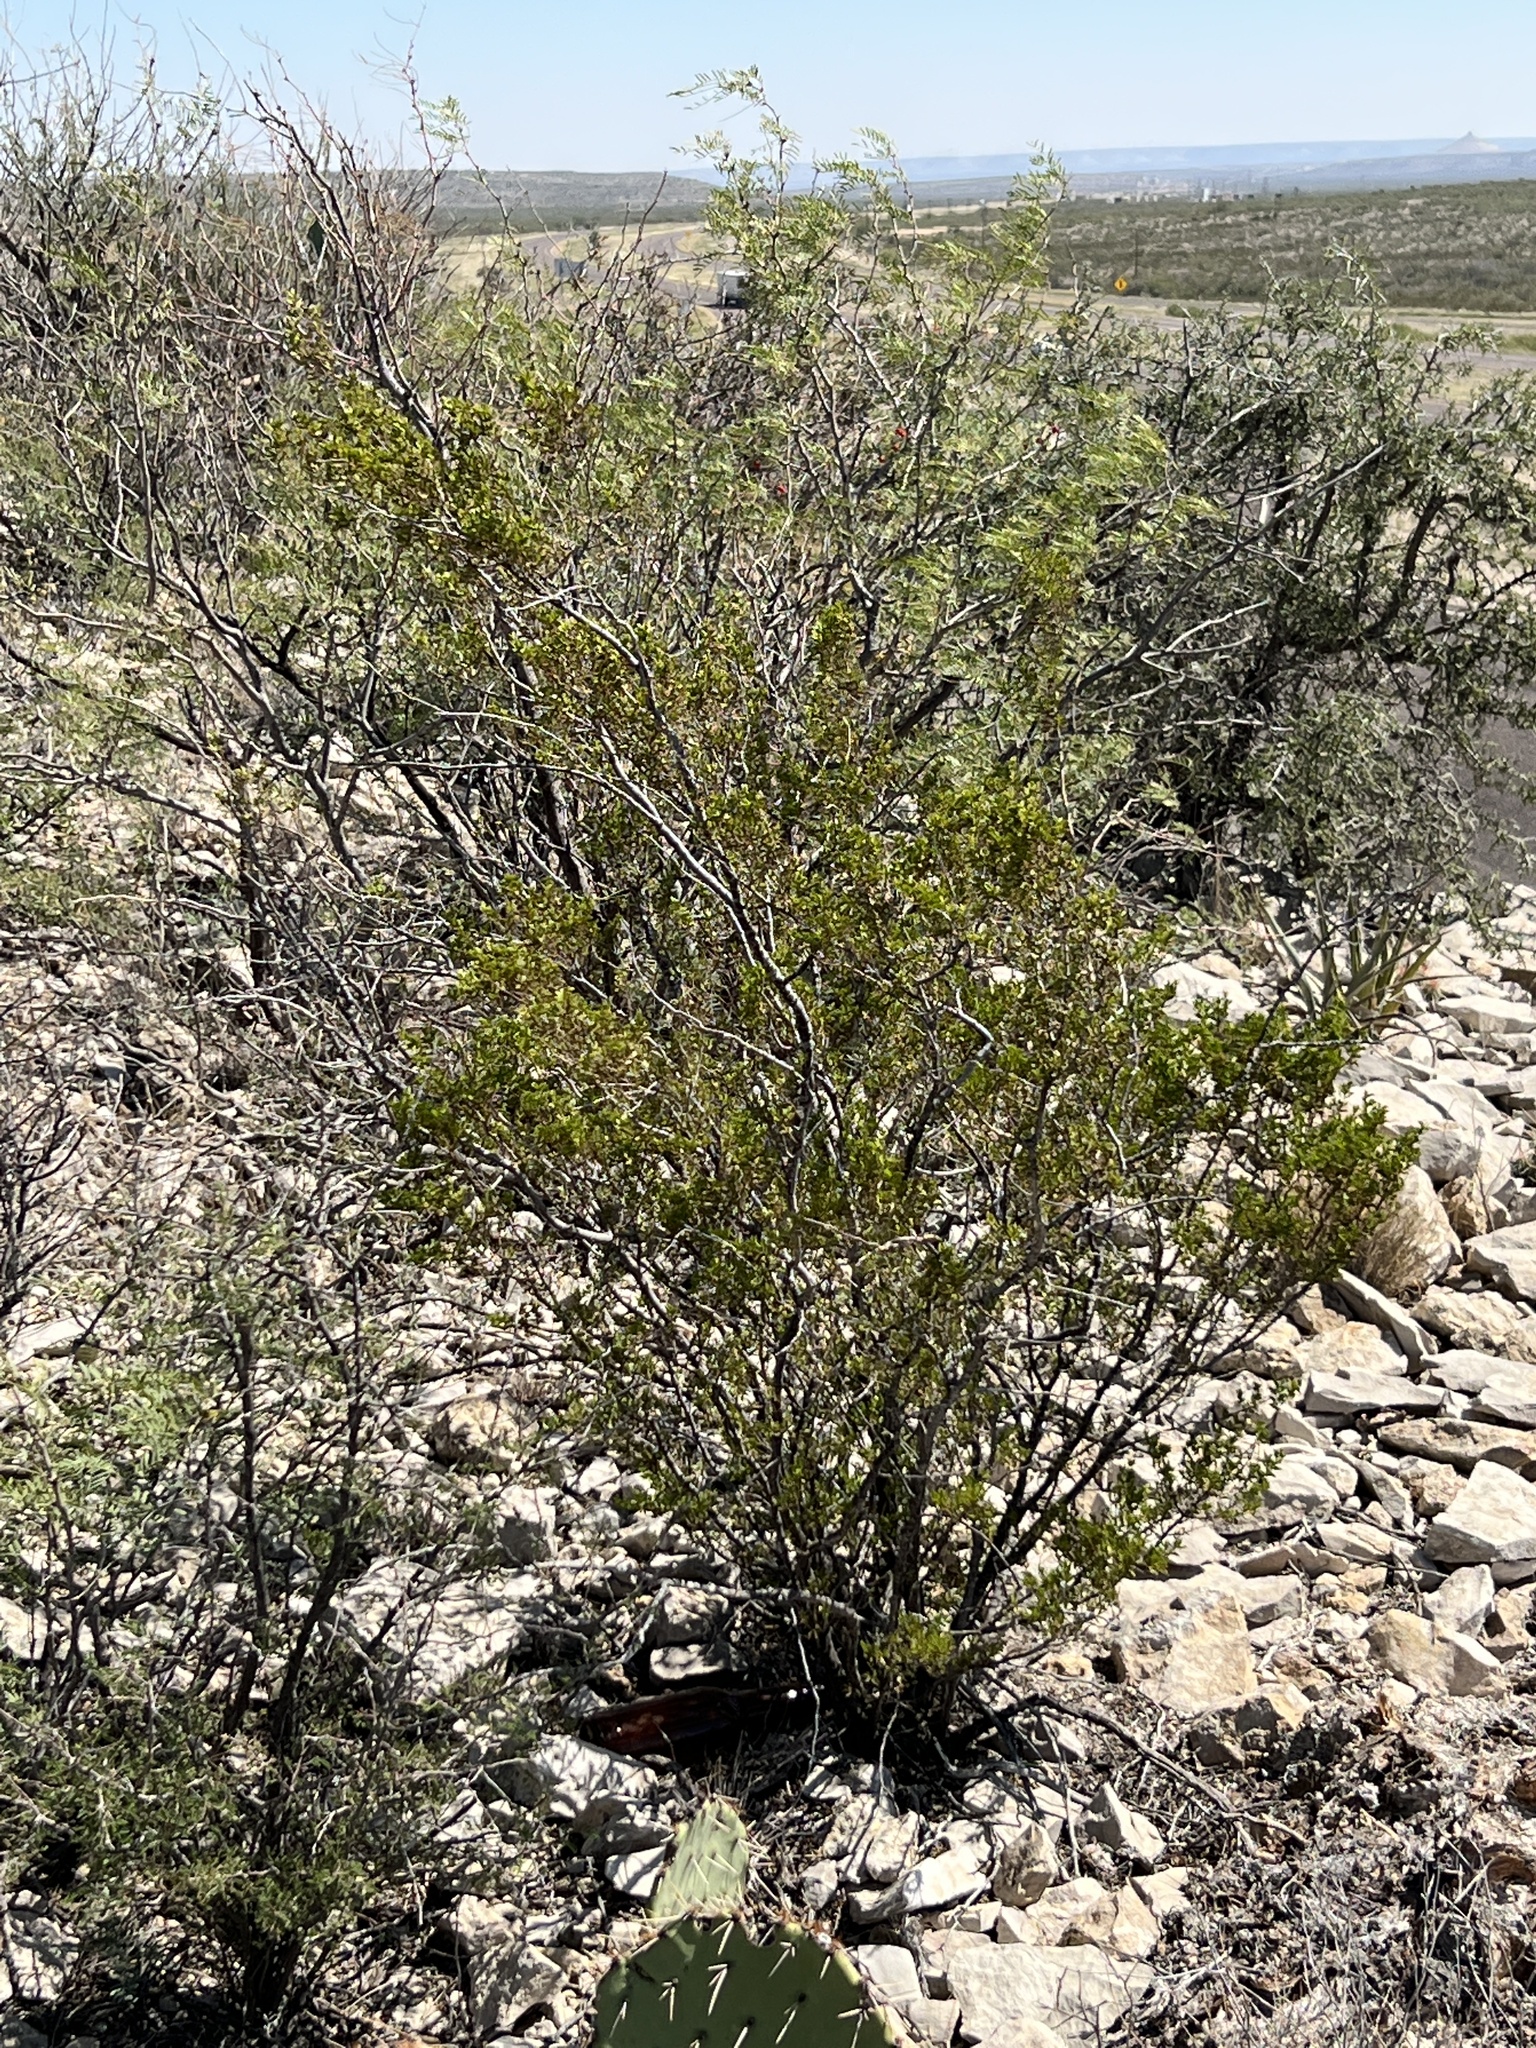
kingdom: Plantae
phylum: Tracheophyta
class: Magnoliopsida
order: Zygophyllales
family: Zygophyllaceae
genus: Larrea
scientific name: Larrea tridentata
